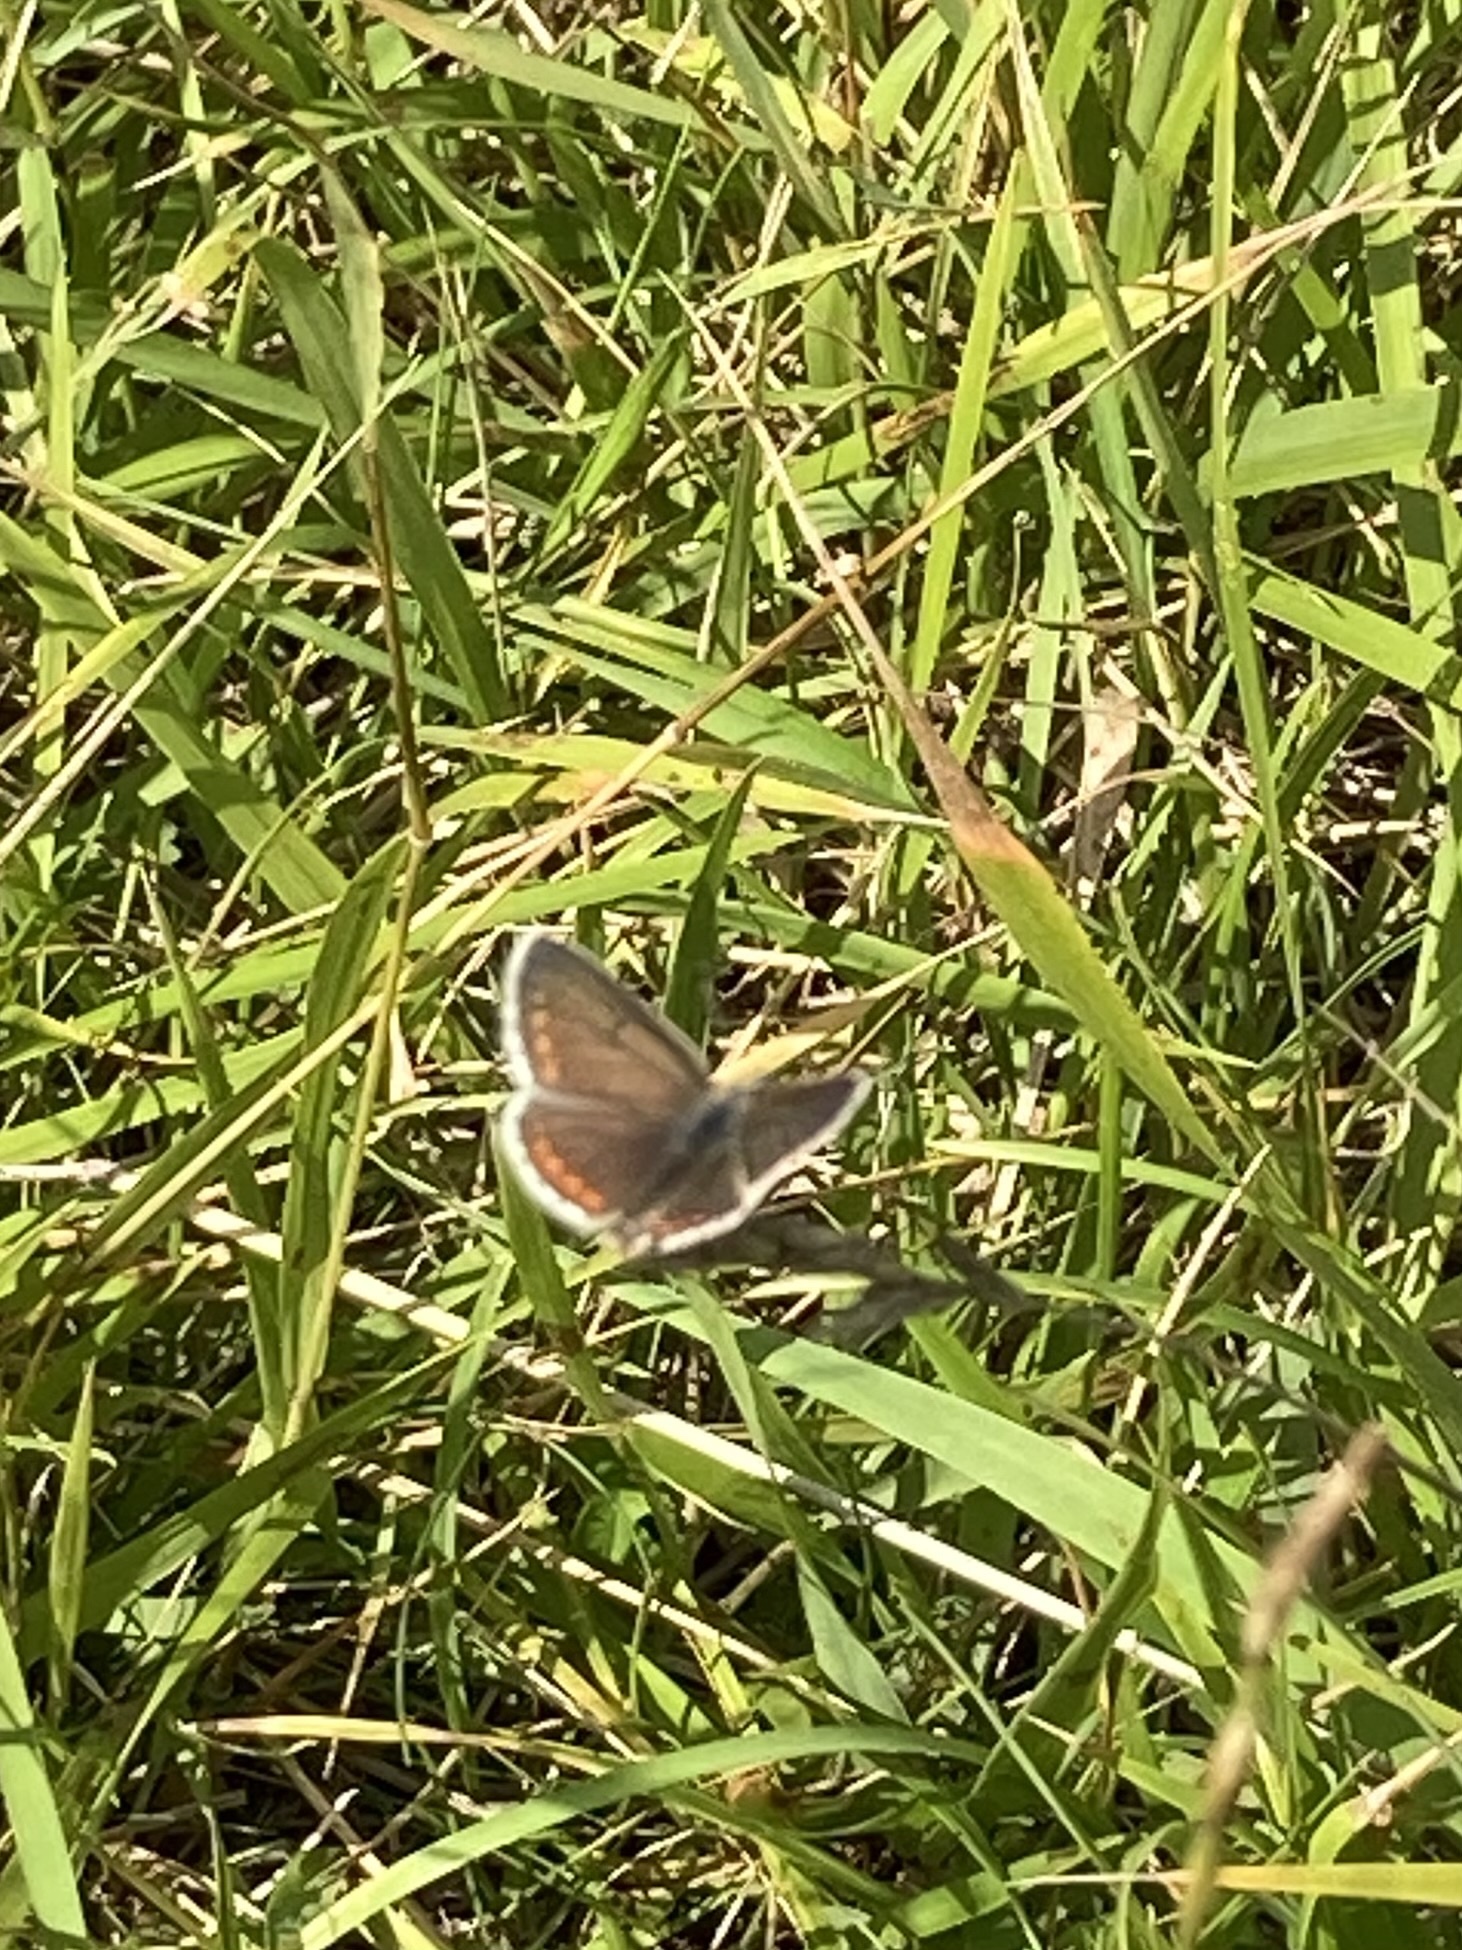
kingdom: Animalia
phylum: Arthropoda
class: Insecta
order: Lepidoptera
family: Lycaenidae
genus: Aricia
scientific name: Aricia agestis
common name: Brown argus
